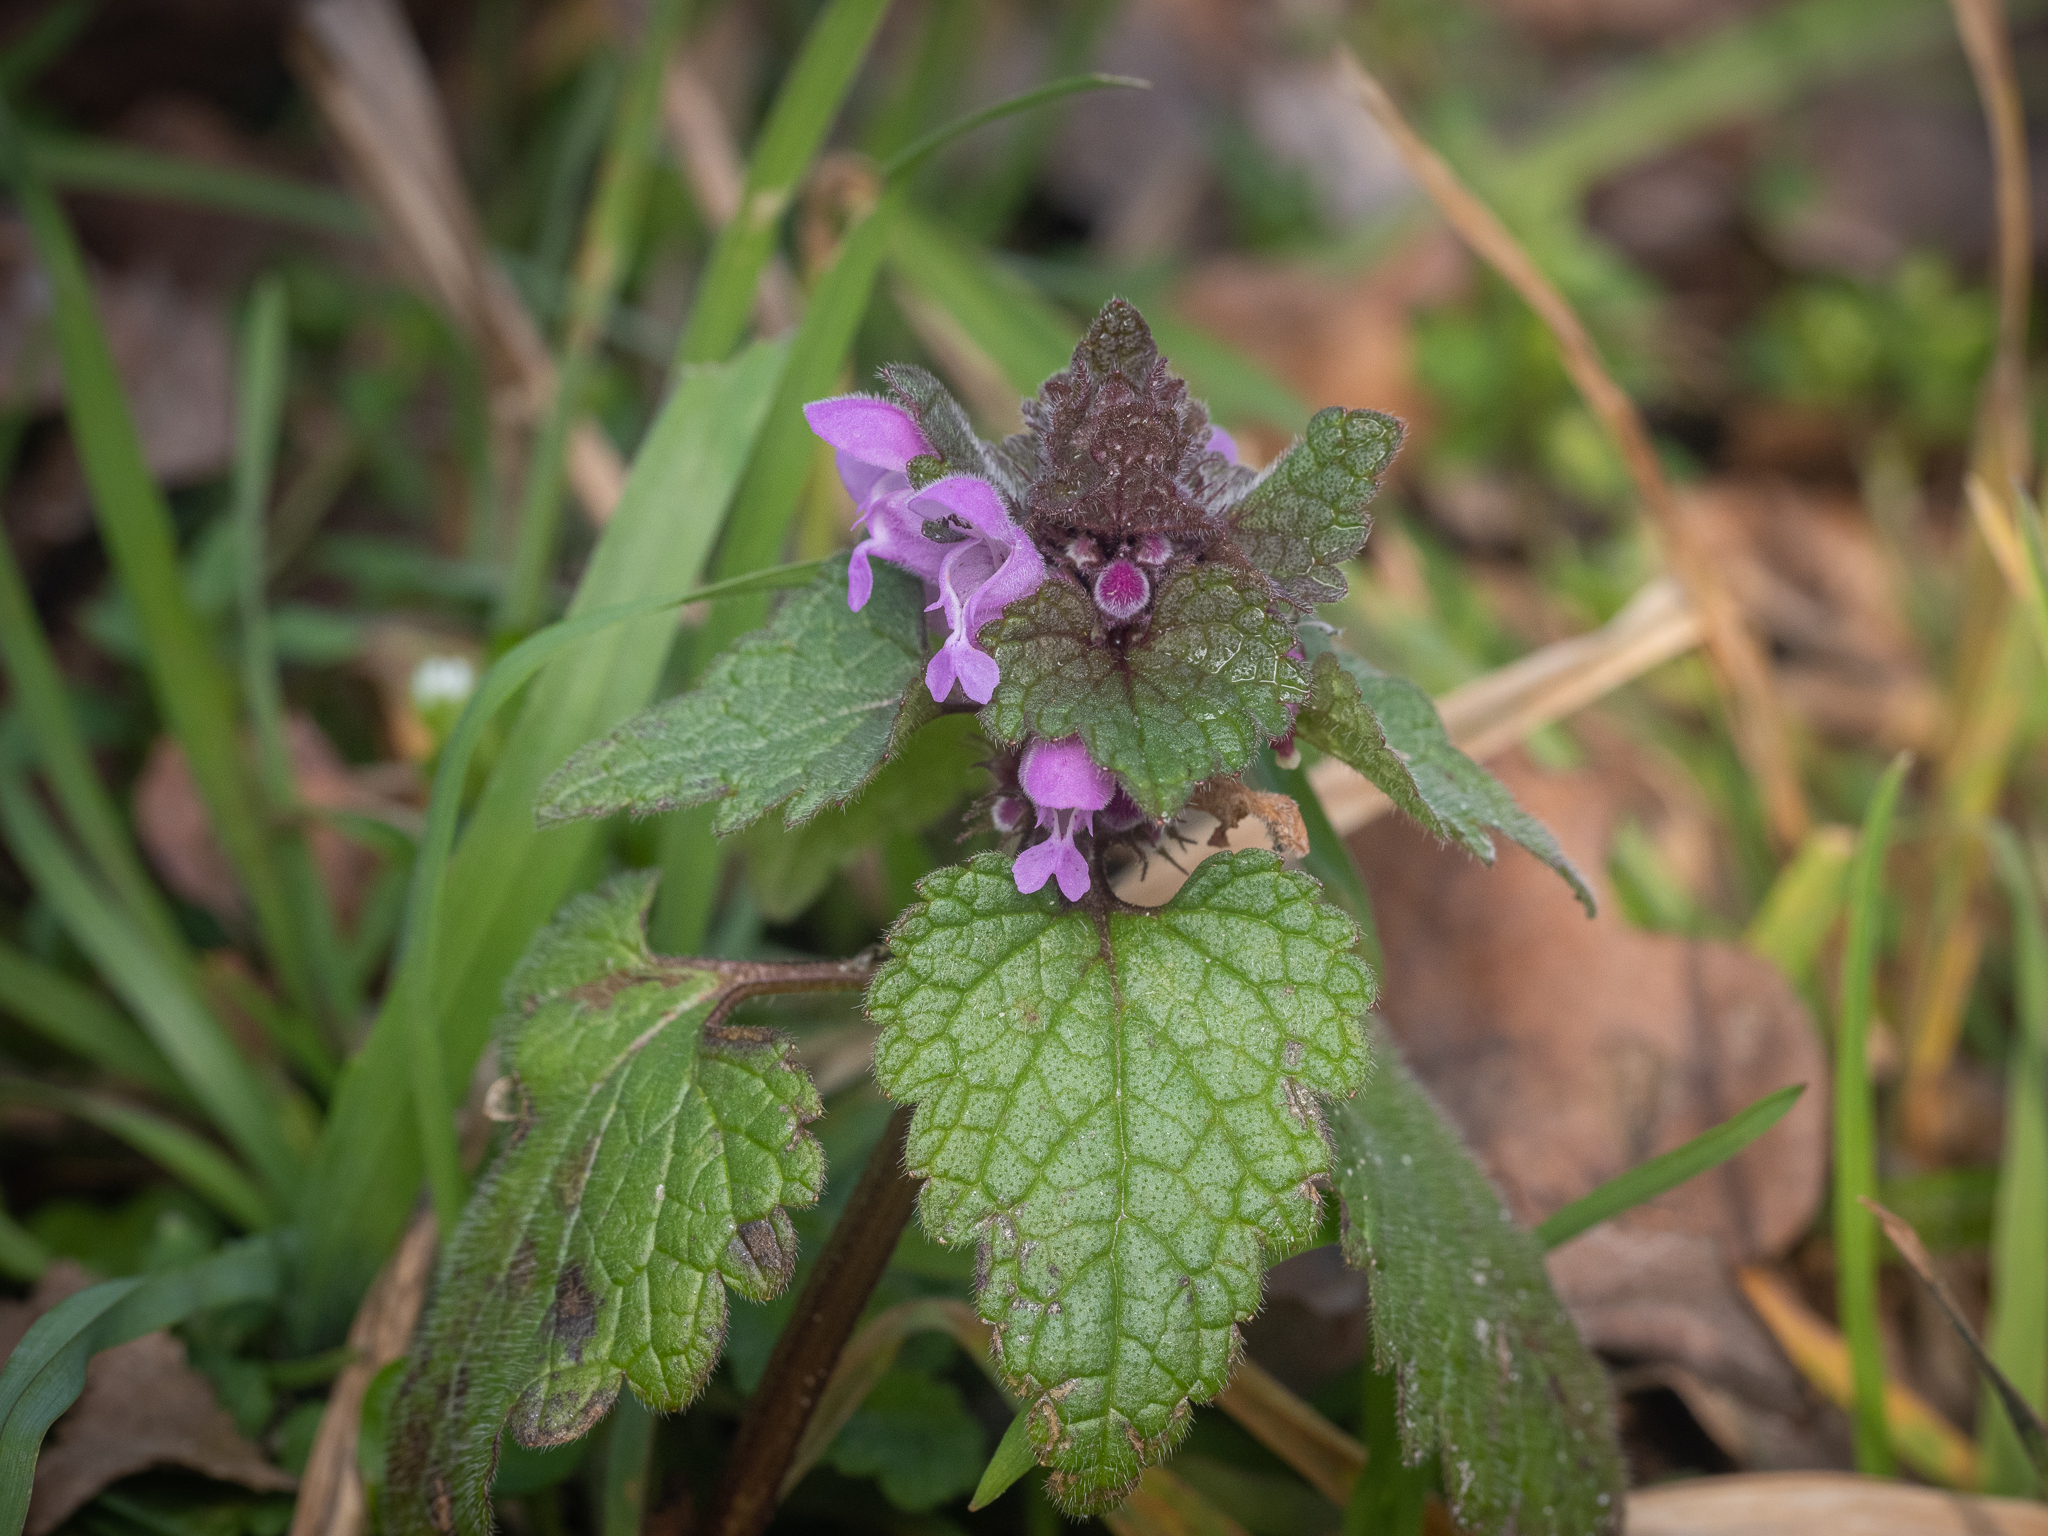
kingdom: Plantae
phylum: Tracheophyta
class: Magnoliopsida
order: Lamiales
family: Lamiaceae
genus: Lamium
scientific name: Lamium purpureum
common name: Red dead-nettle
